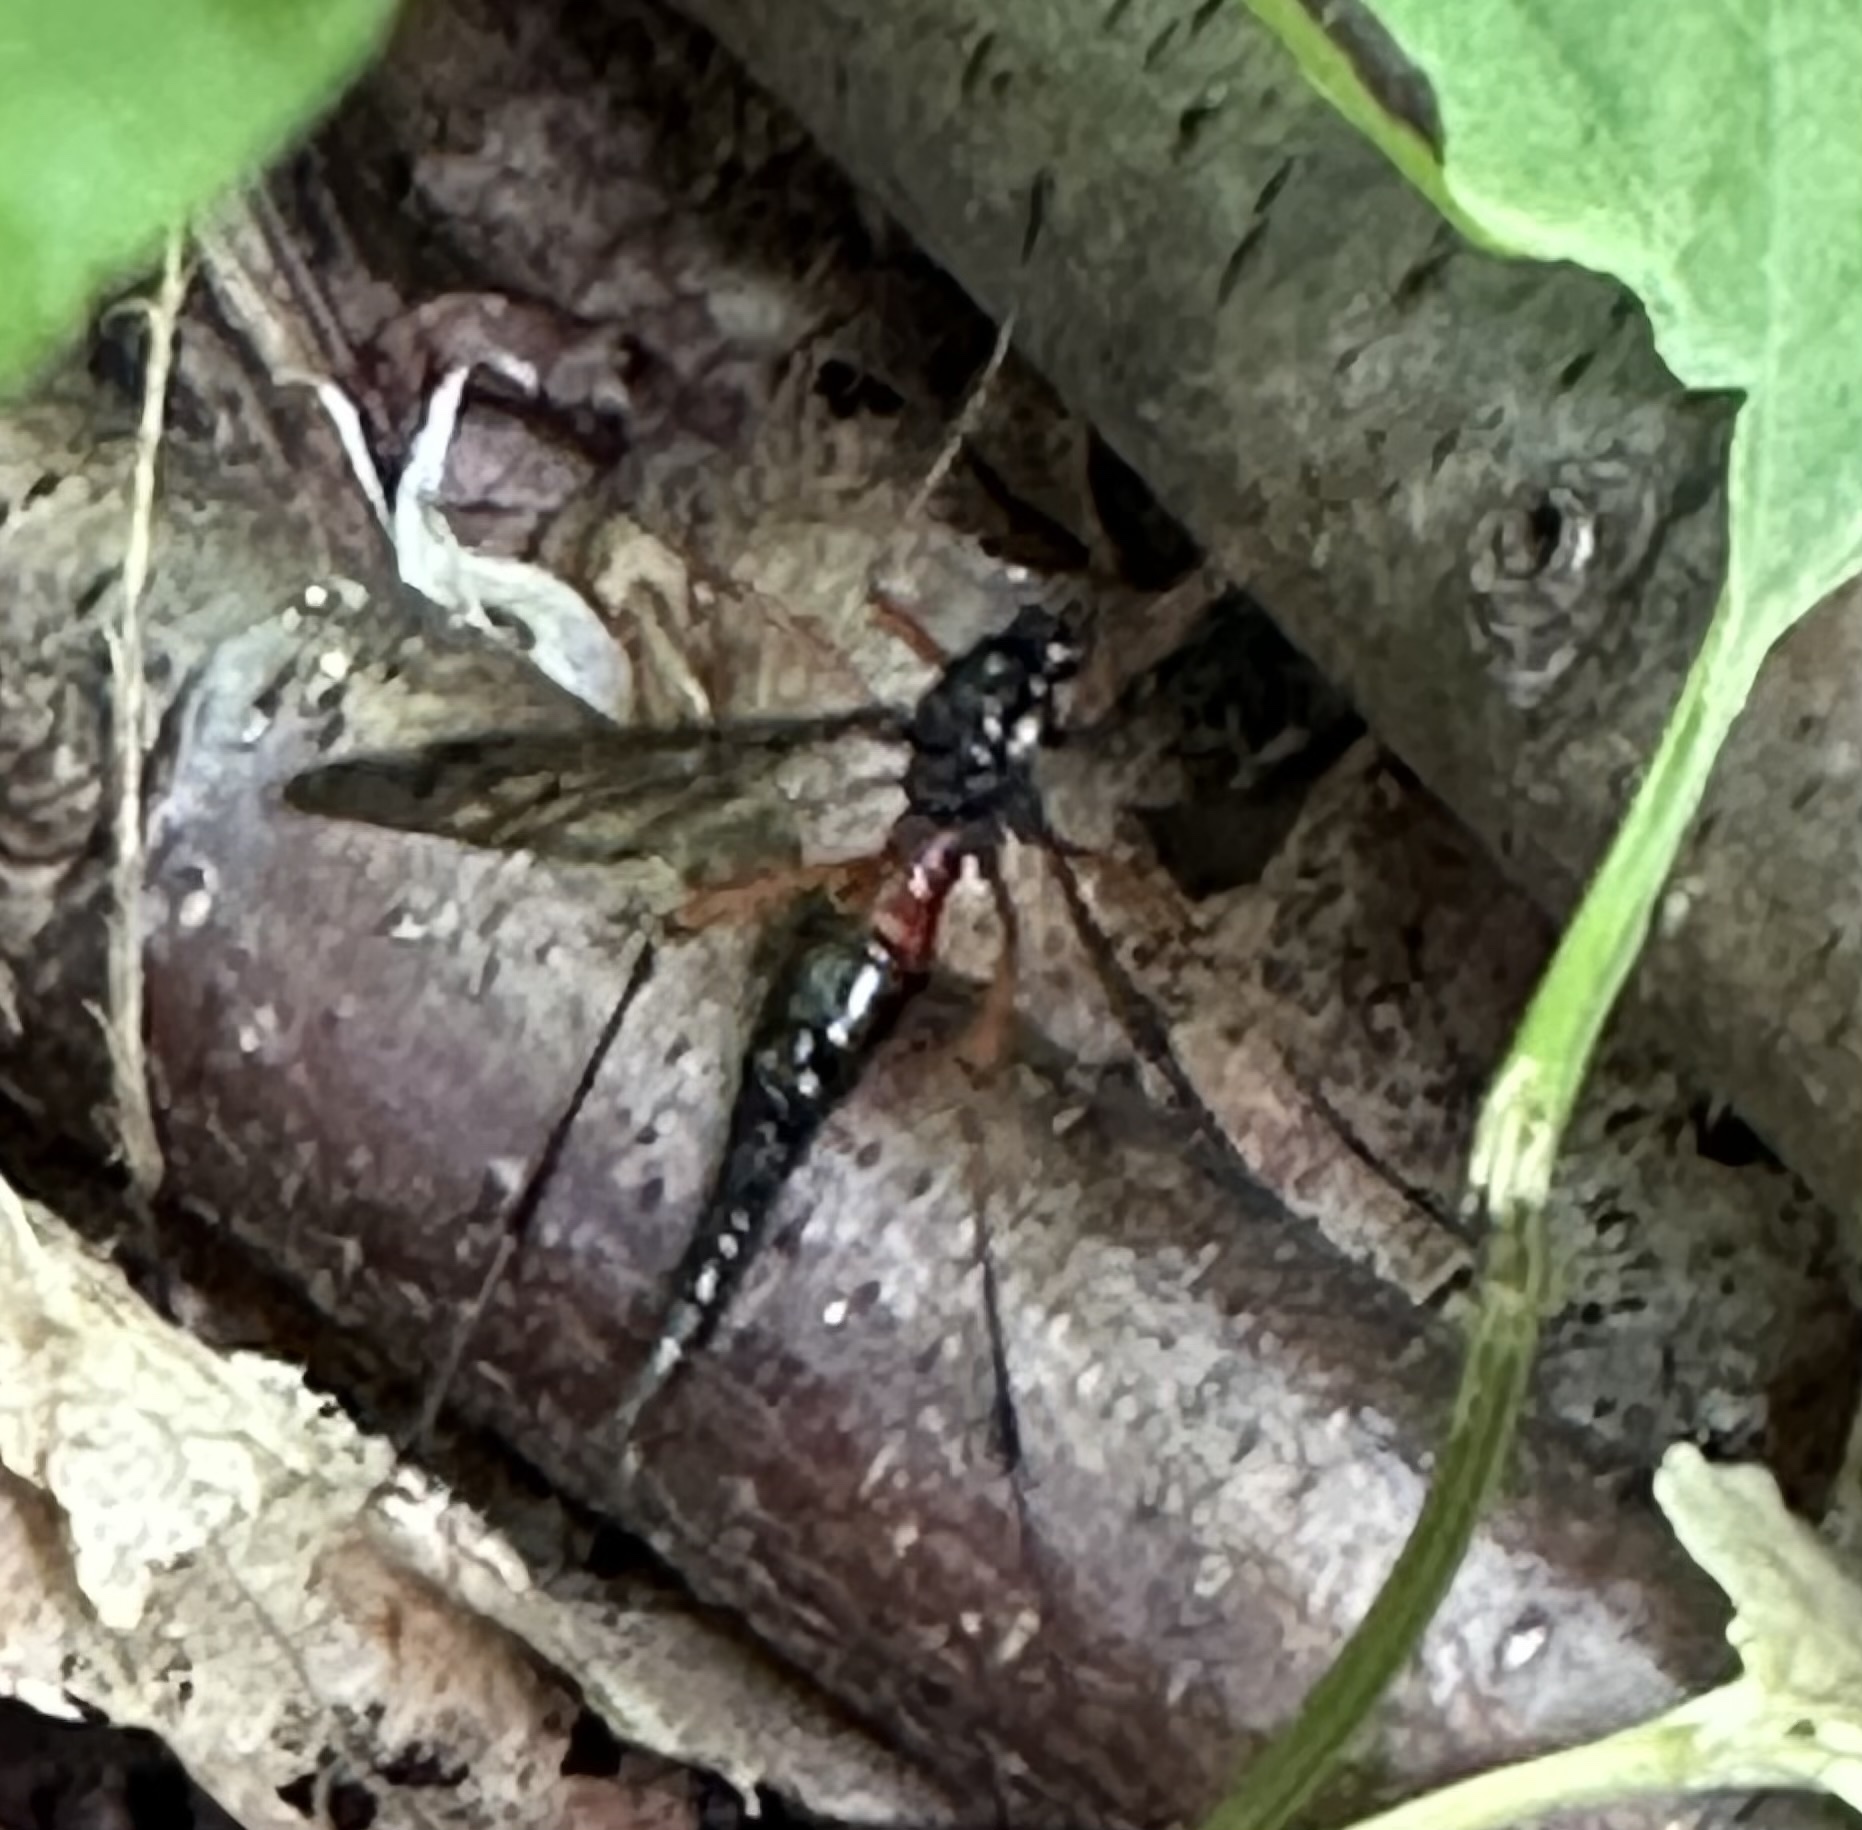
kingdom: Animalia
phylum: Arthropoda
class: Insecta
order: Diptera
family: Tipulidae
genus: Tanyptera
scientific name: Tanyptera dorsalis
